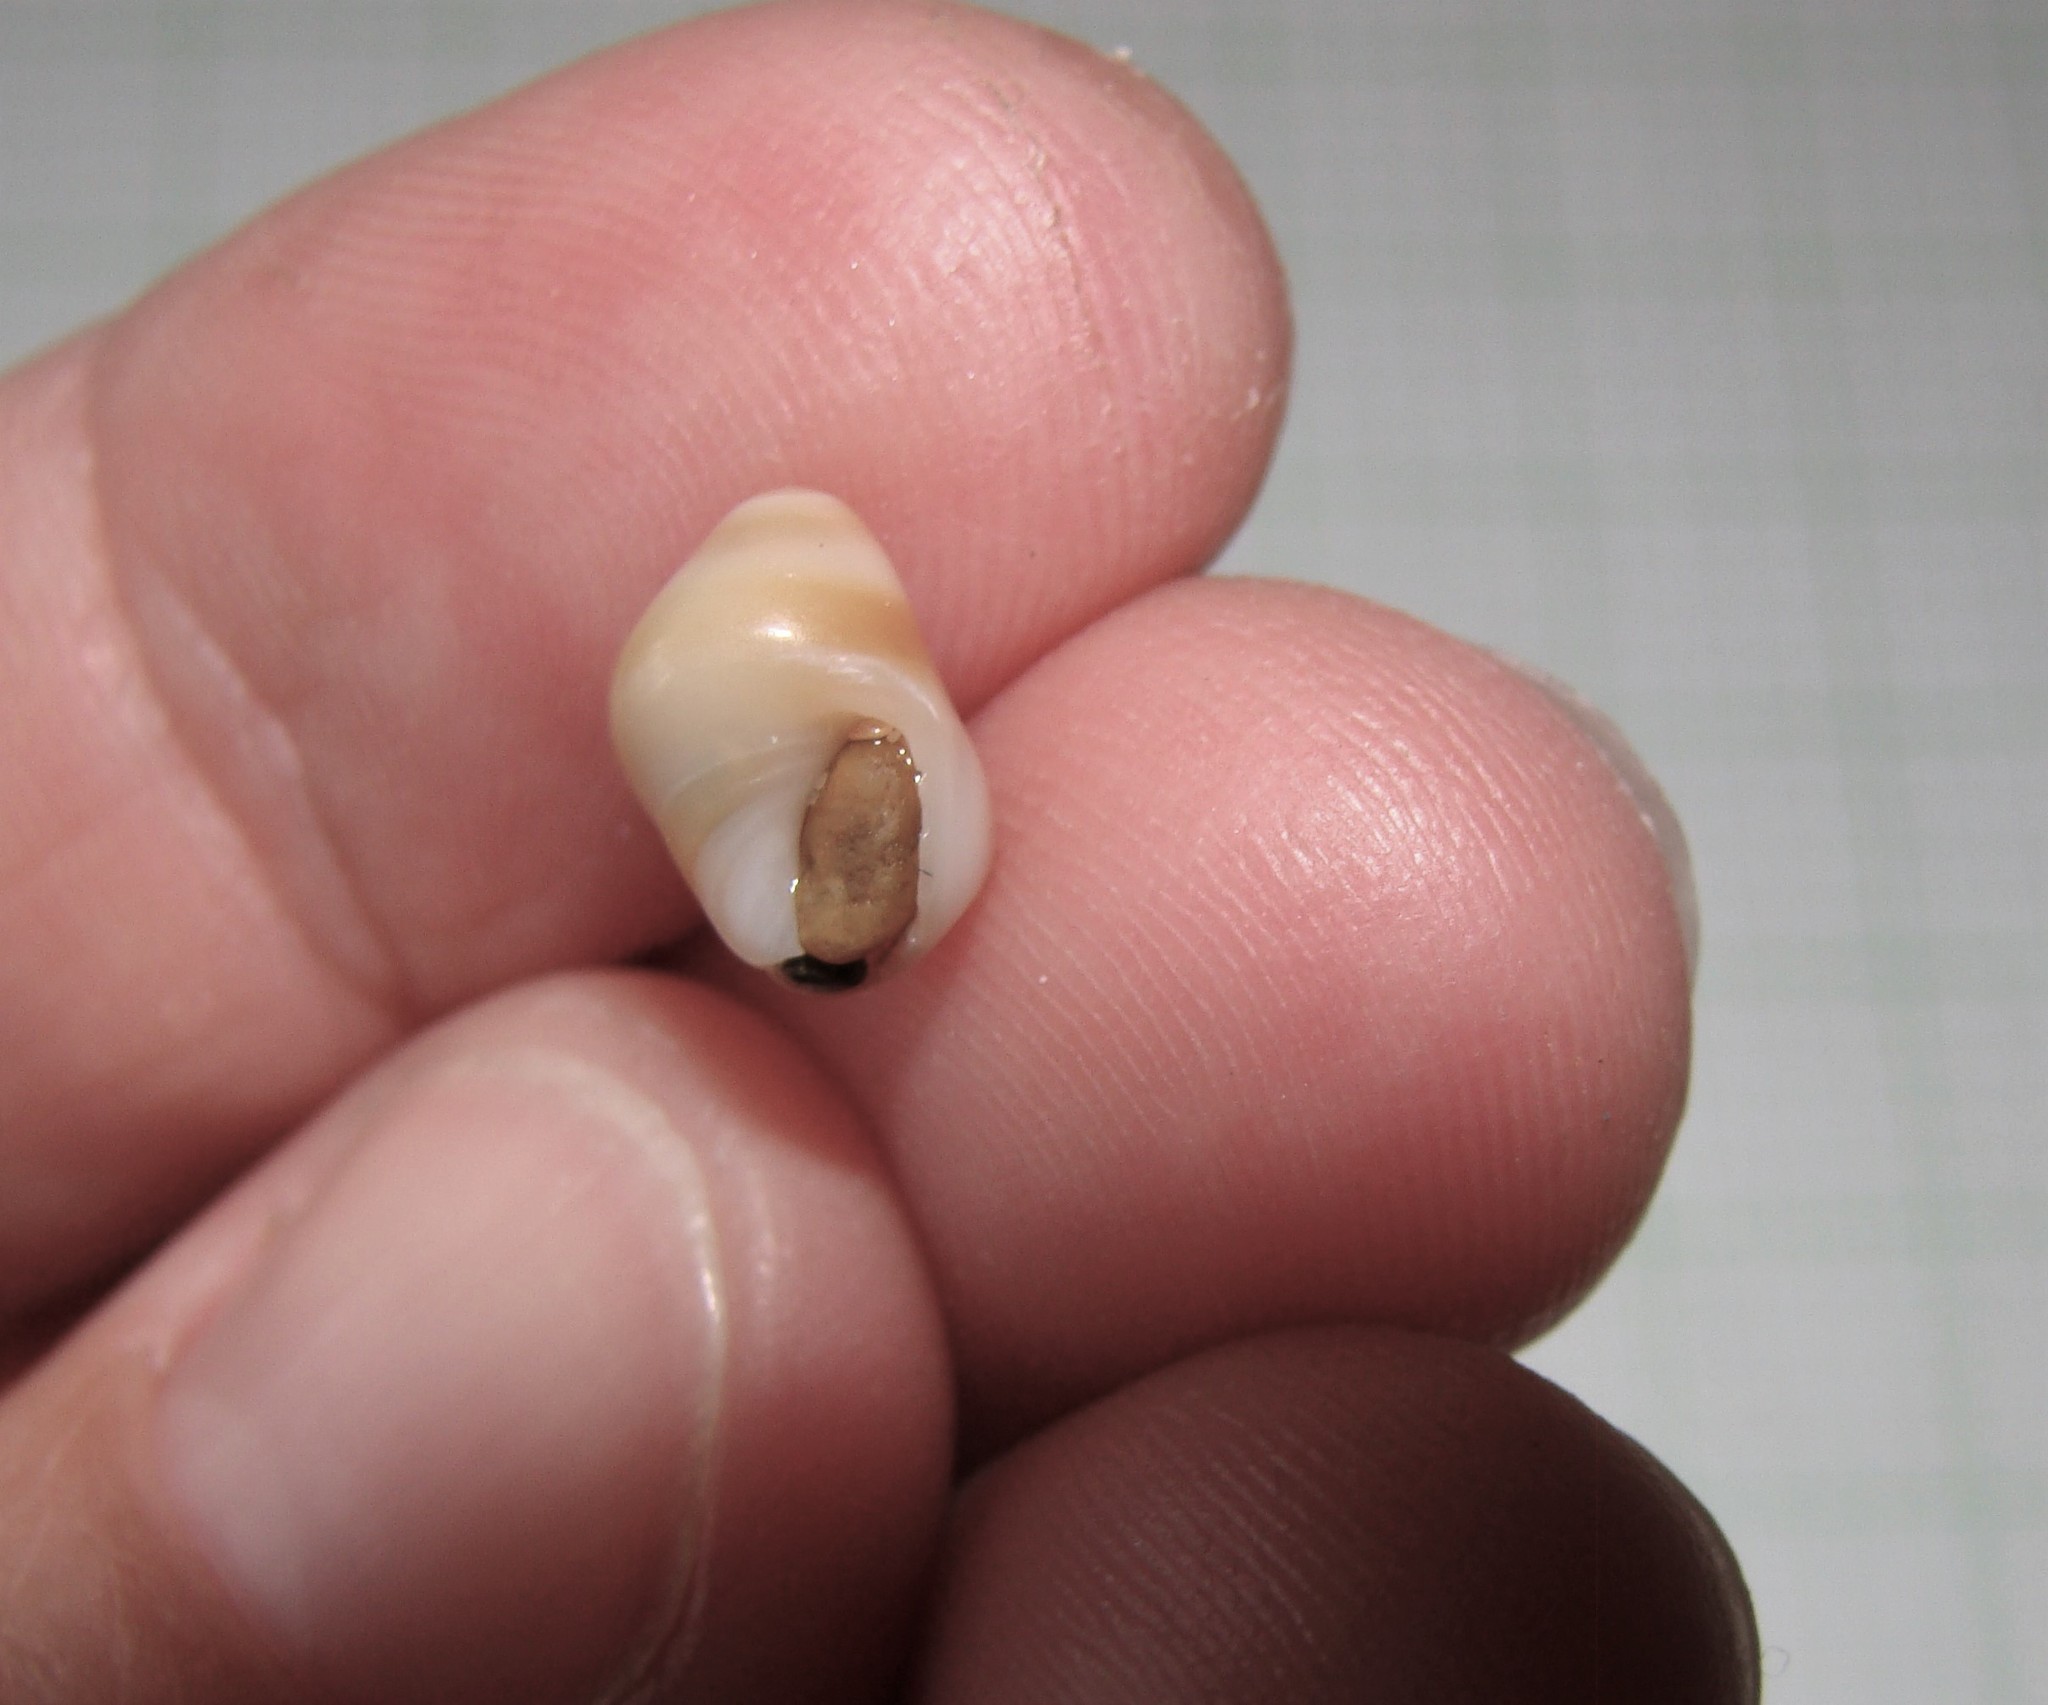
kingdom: Animalia
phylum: Mollusca
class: Gastropoda
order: Neogastropoda
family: Ancillariidae
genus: Amalda
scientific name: Amalda australis
